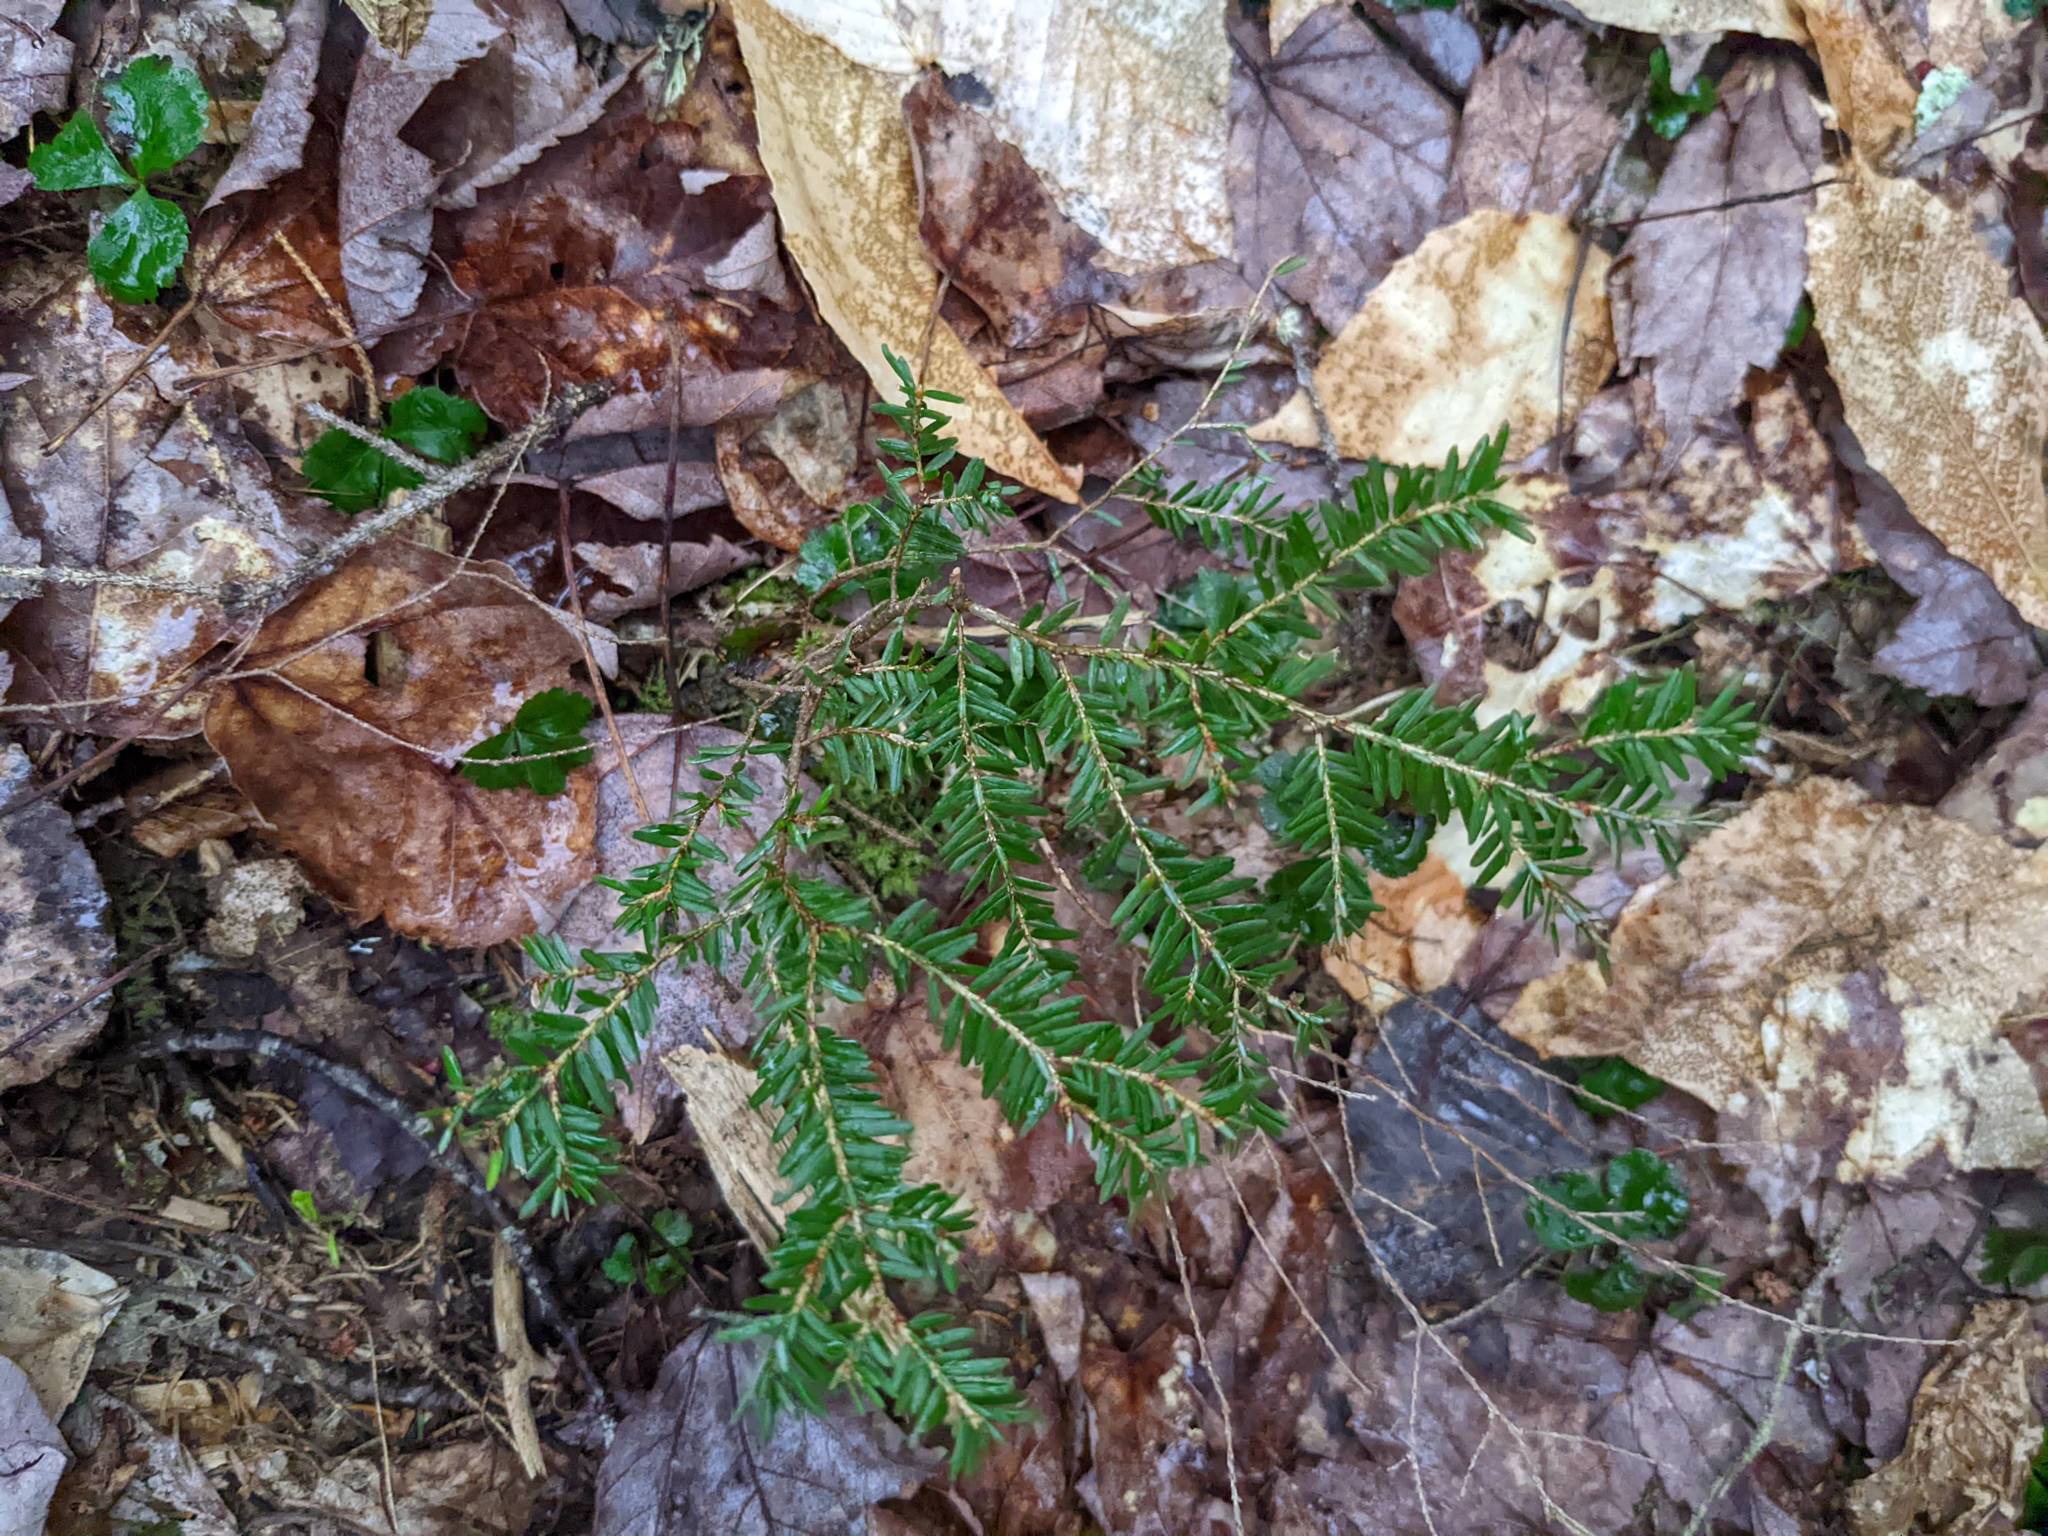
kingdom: Plantae
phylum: Tracheophyta
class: Pinopsida
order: Pinales
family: Pinaceae
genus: Tsuga
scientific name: Tsuga canadensis
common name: Eastern hemlock
